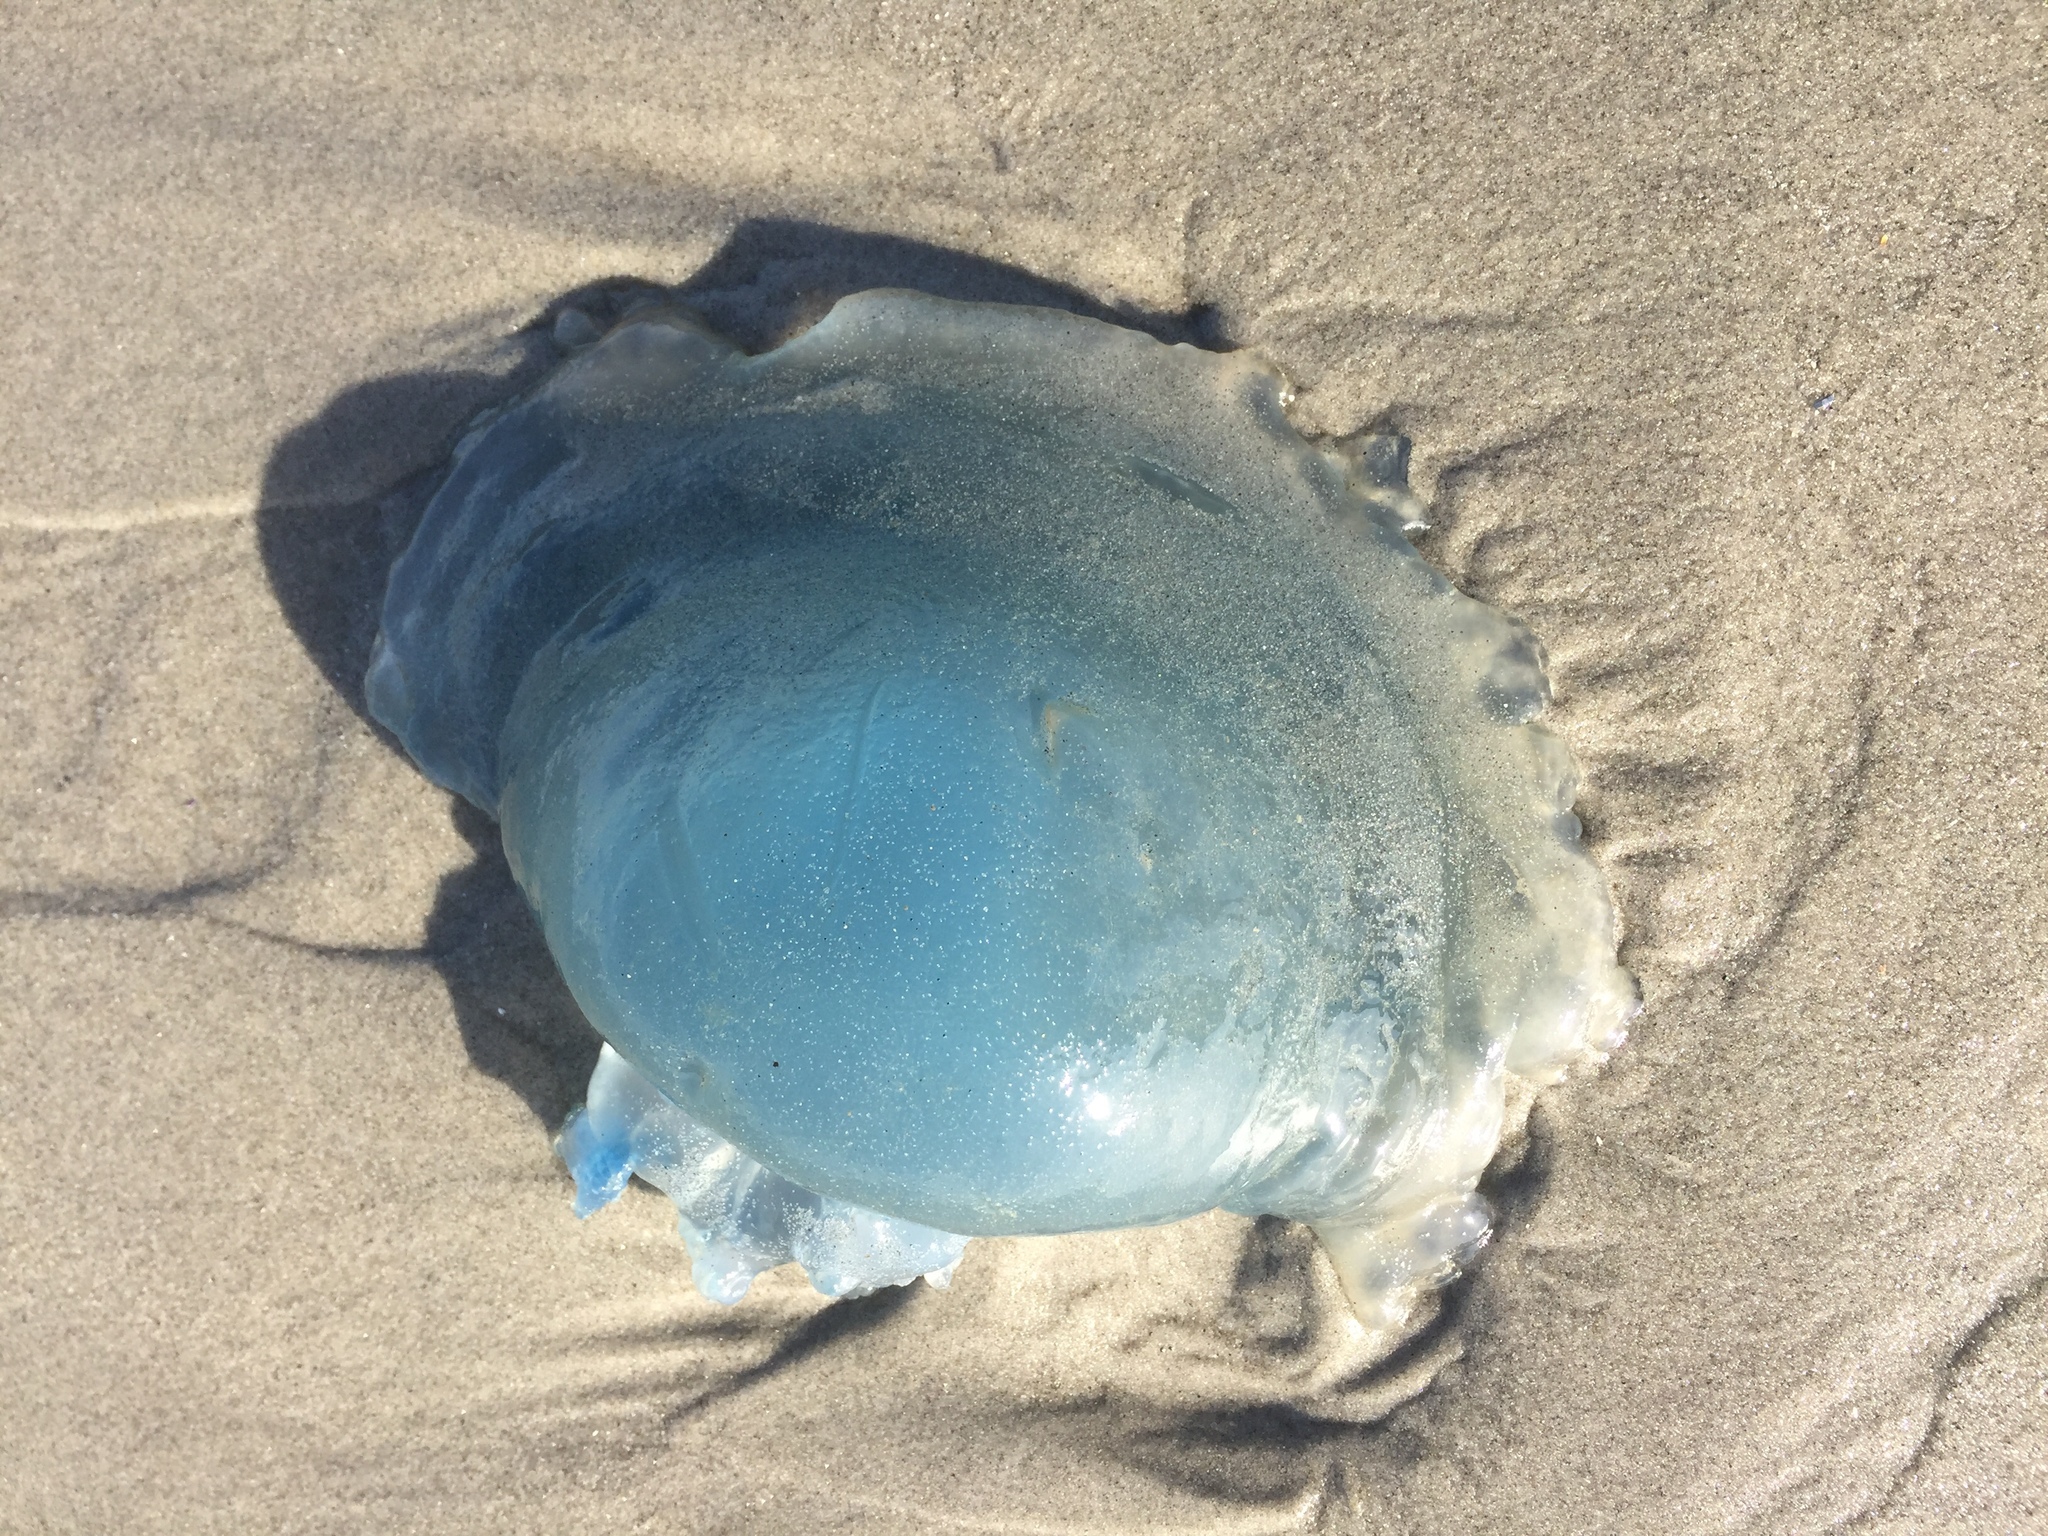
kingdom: Animalia
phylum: Cnidaria
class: Scyphozoa
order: Rhizostomeae
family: Rhizostomatidae
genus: Rhizostoma
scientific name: Rhizostoma octopus
